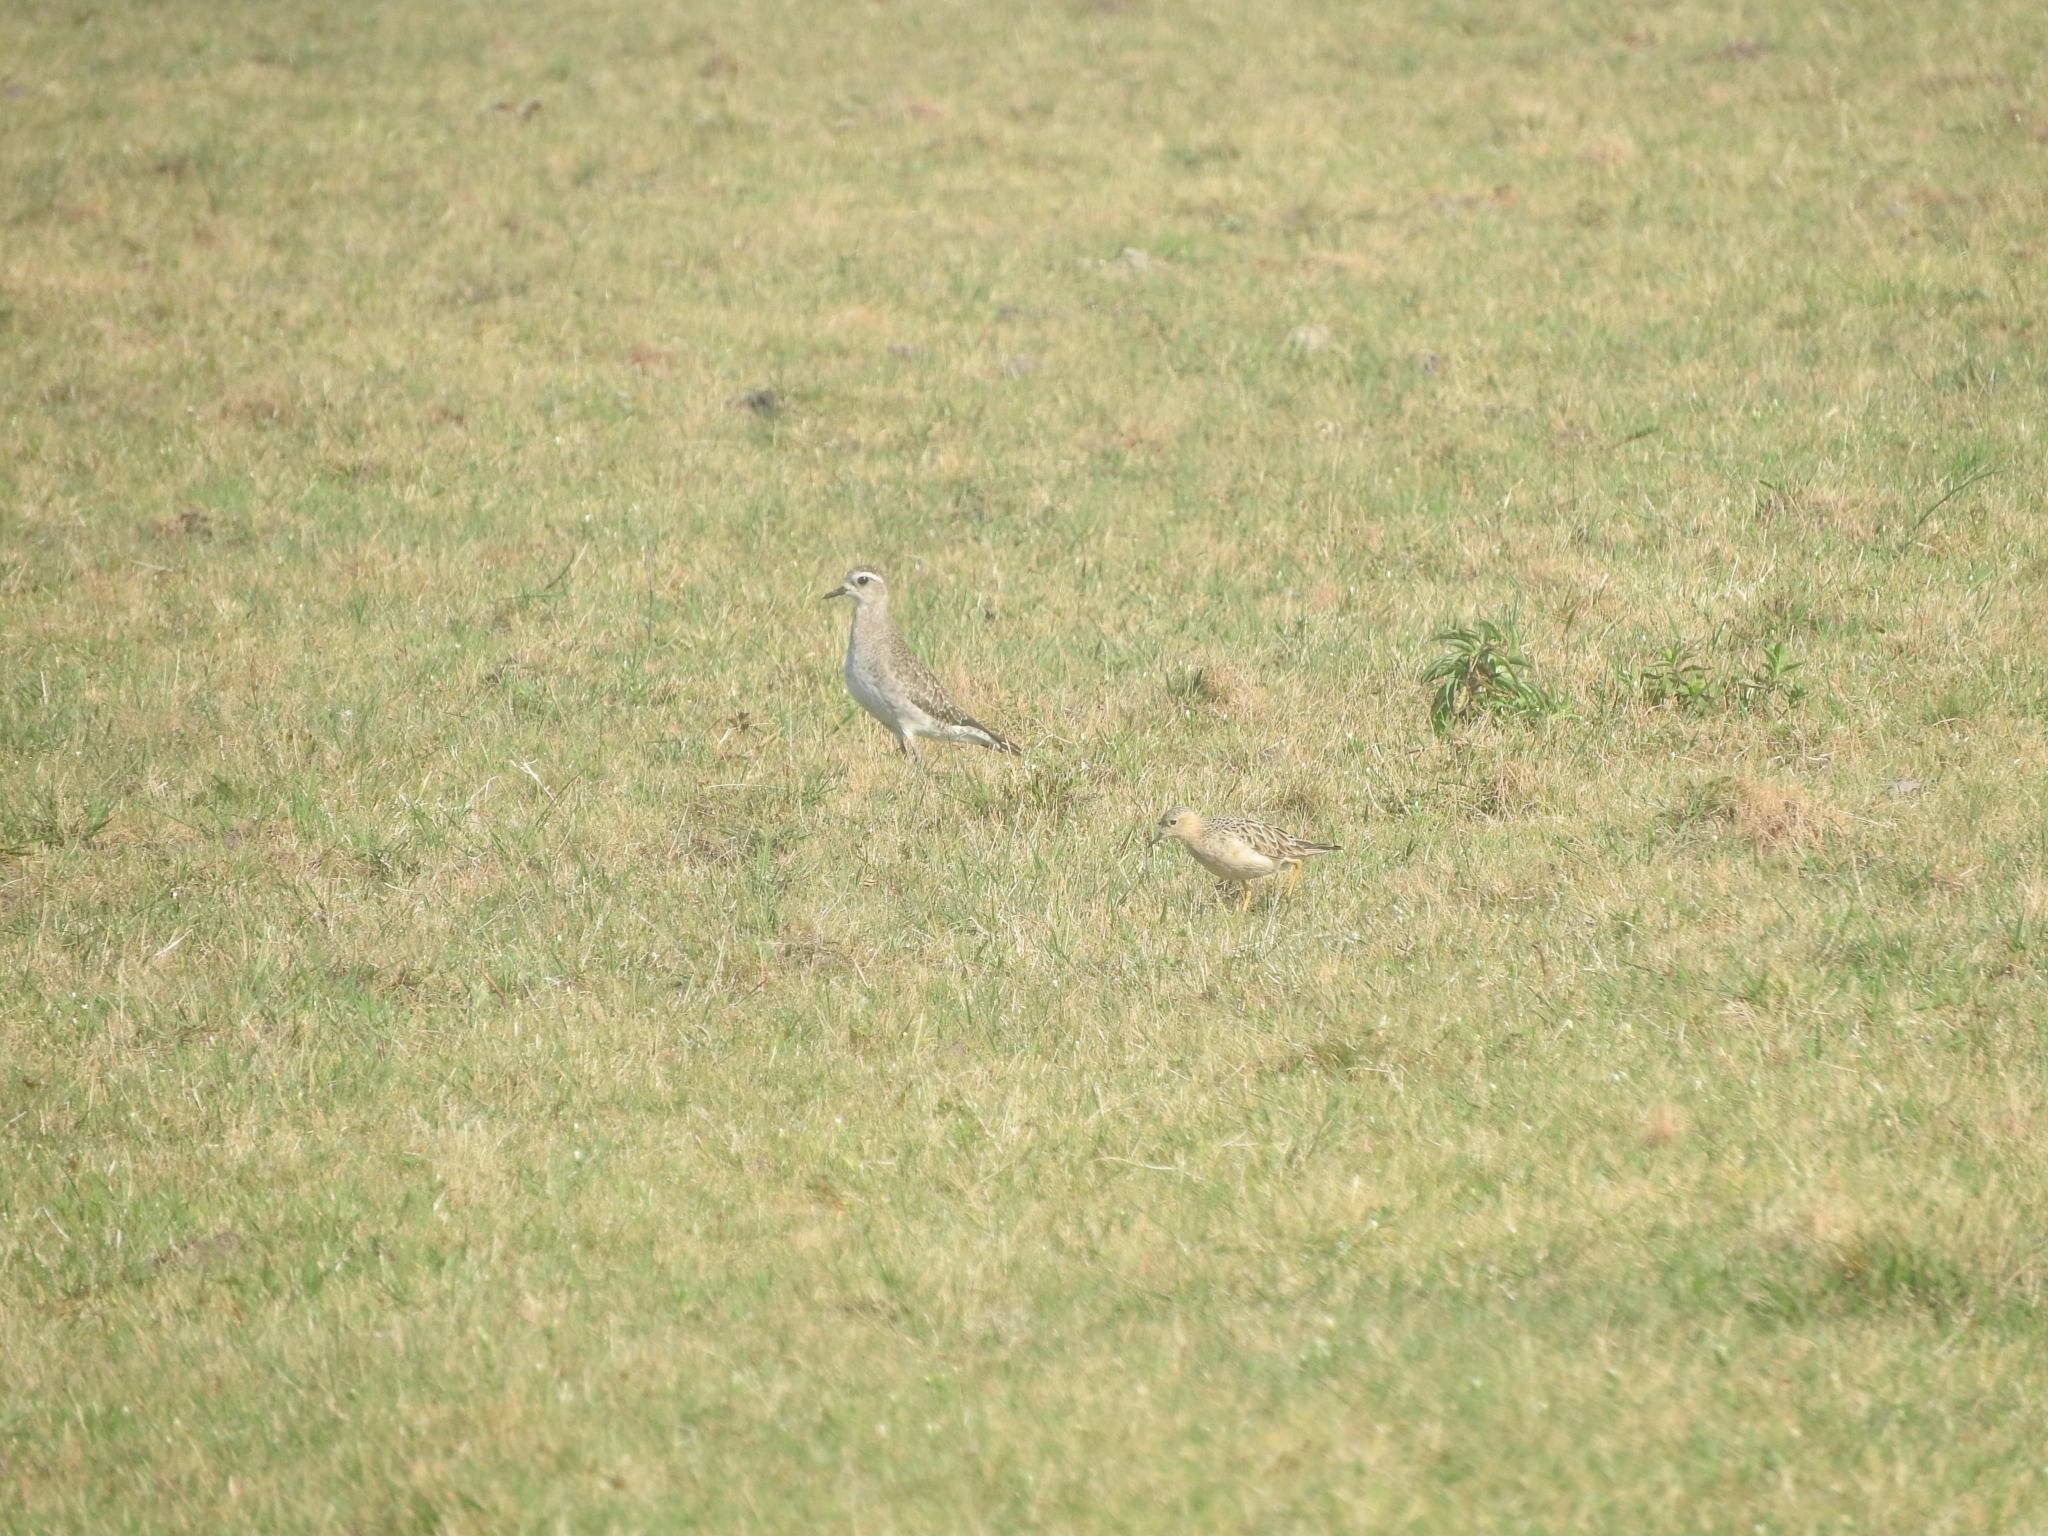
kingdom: Animalia
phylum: Chordata
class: Aves
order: Charadriiformes
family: Charadriidae
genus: Pluvialis
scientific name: Pluvialis dominica
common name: American golden plover
